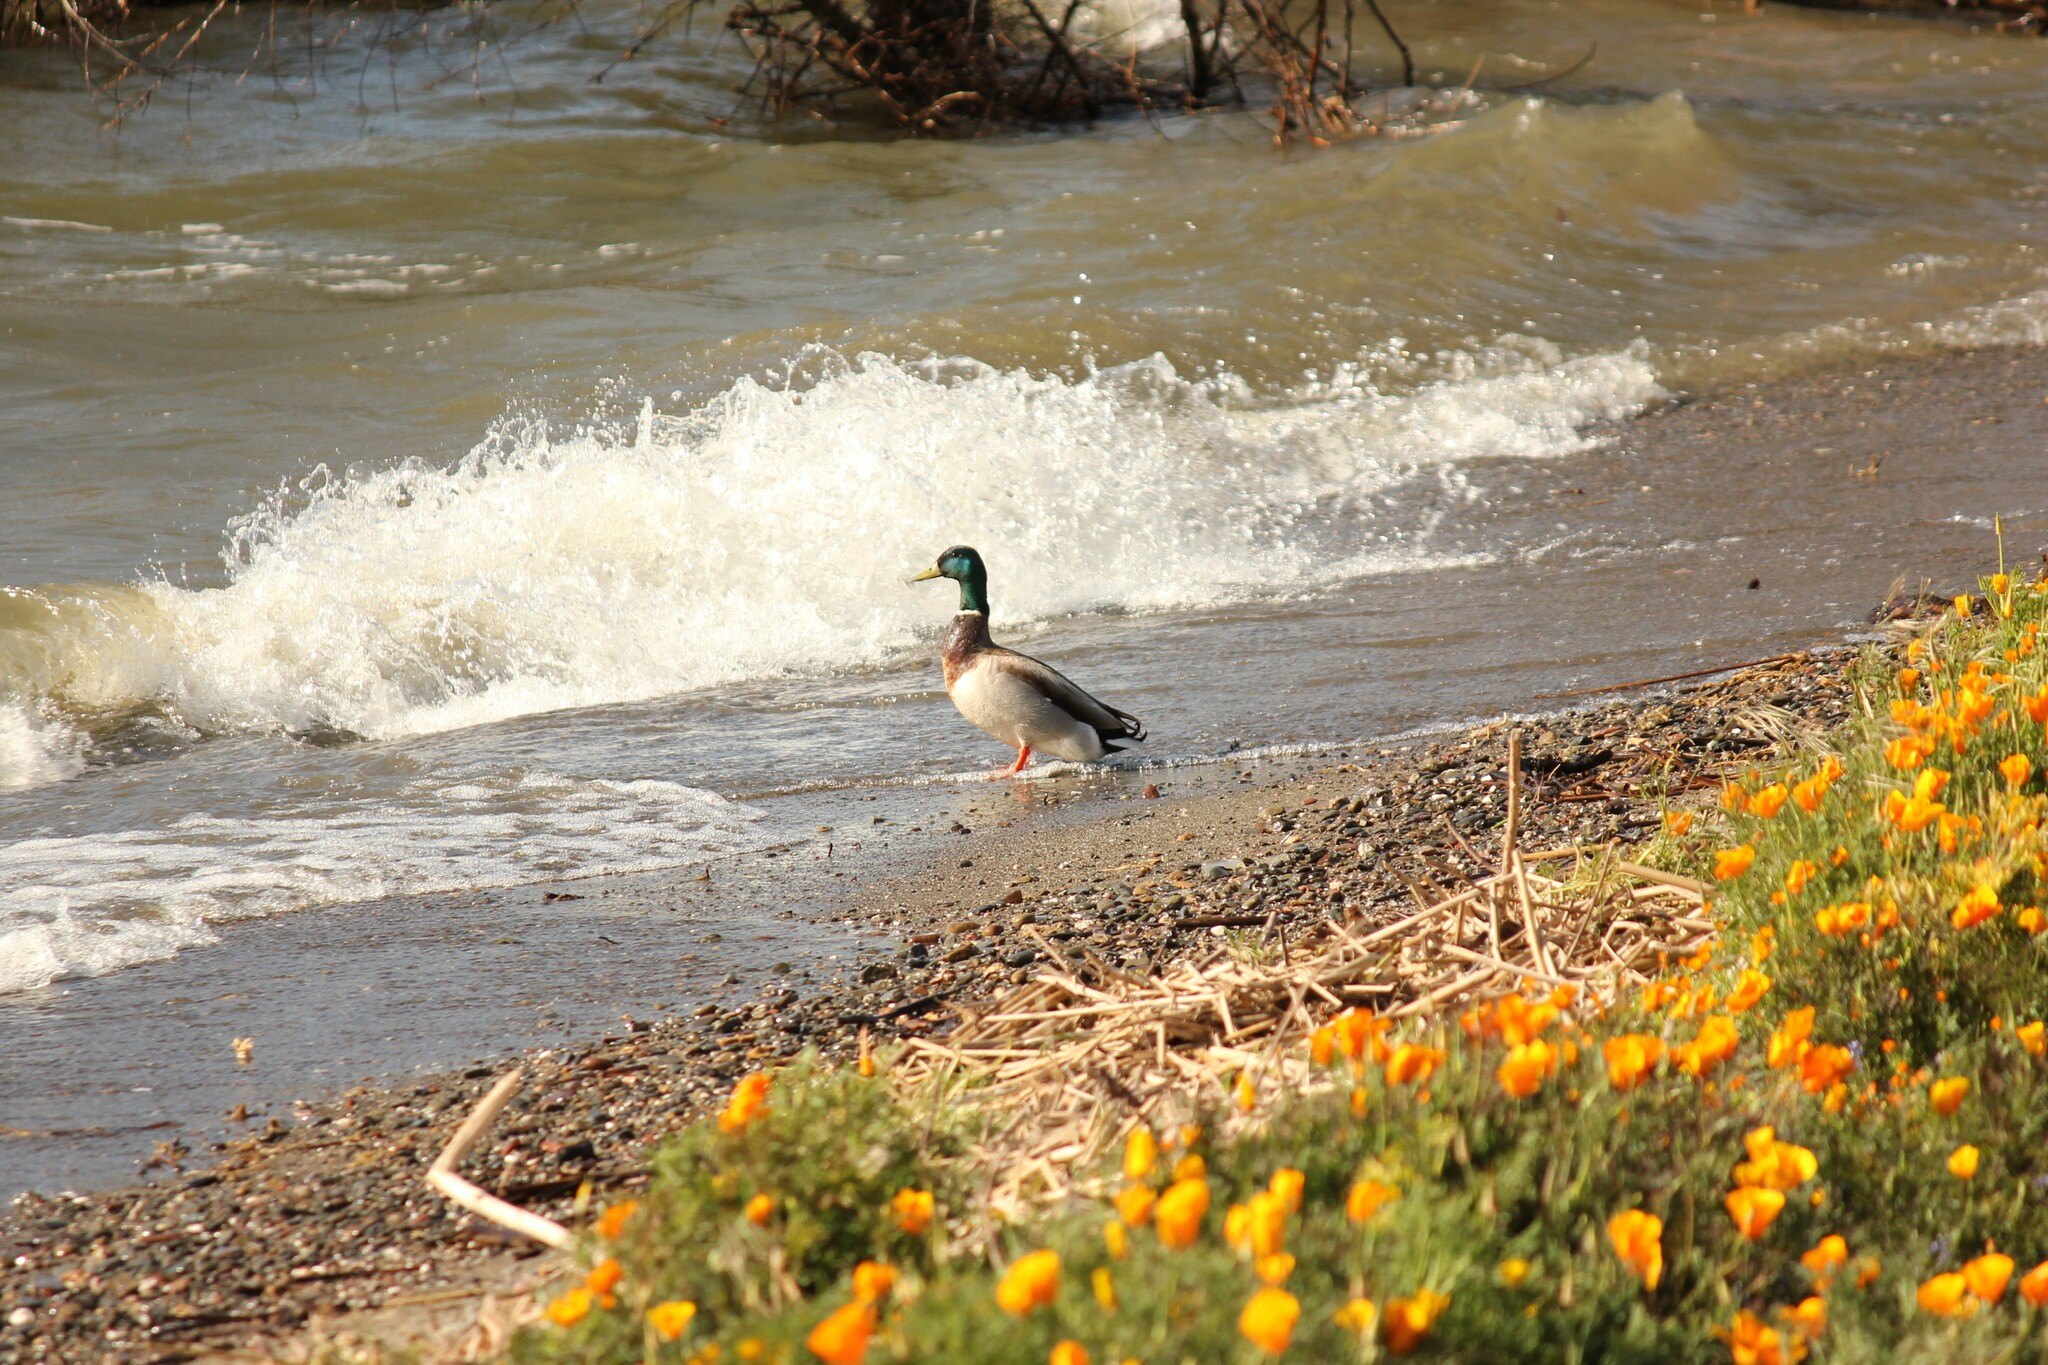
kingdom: Animalia
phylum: Chordata
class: Aves
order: Anseriformes
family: Anatidae
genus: Anas
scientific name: Anas platyrhynchos
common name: Mallard
